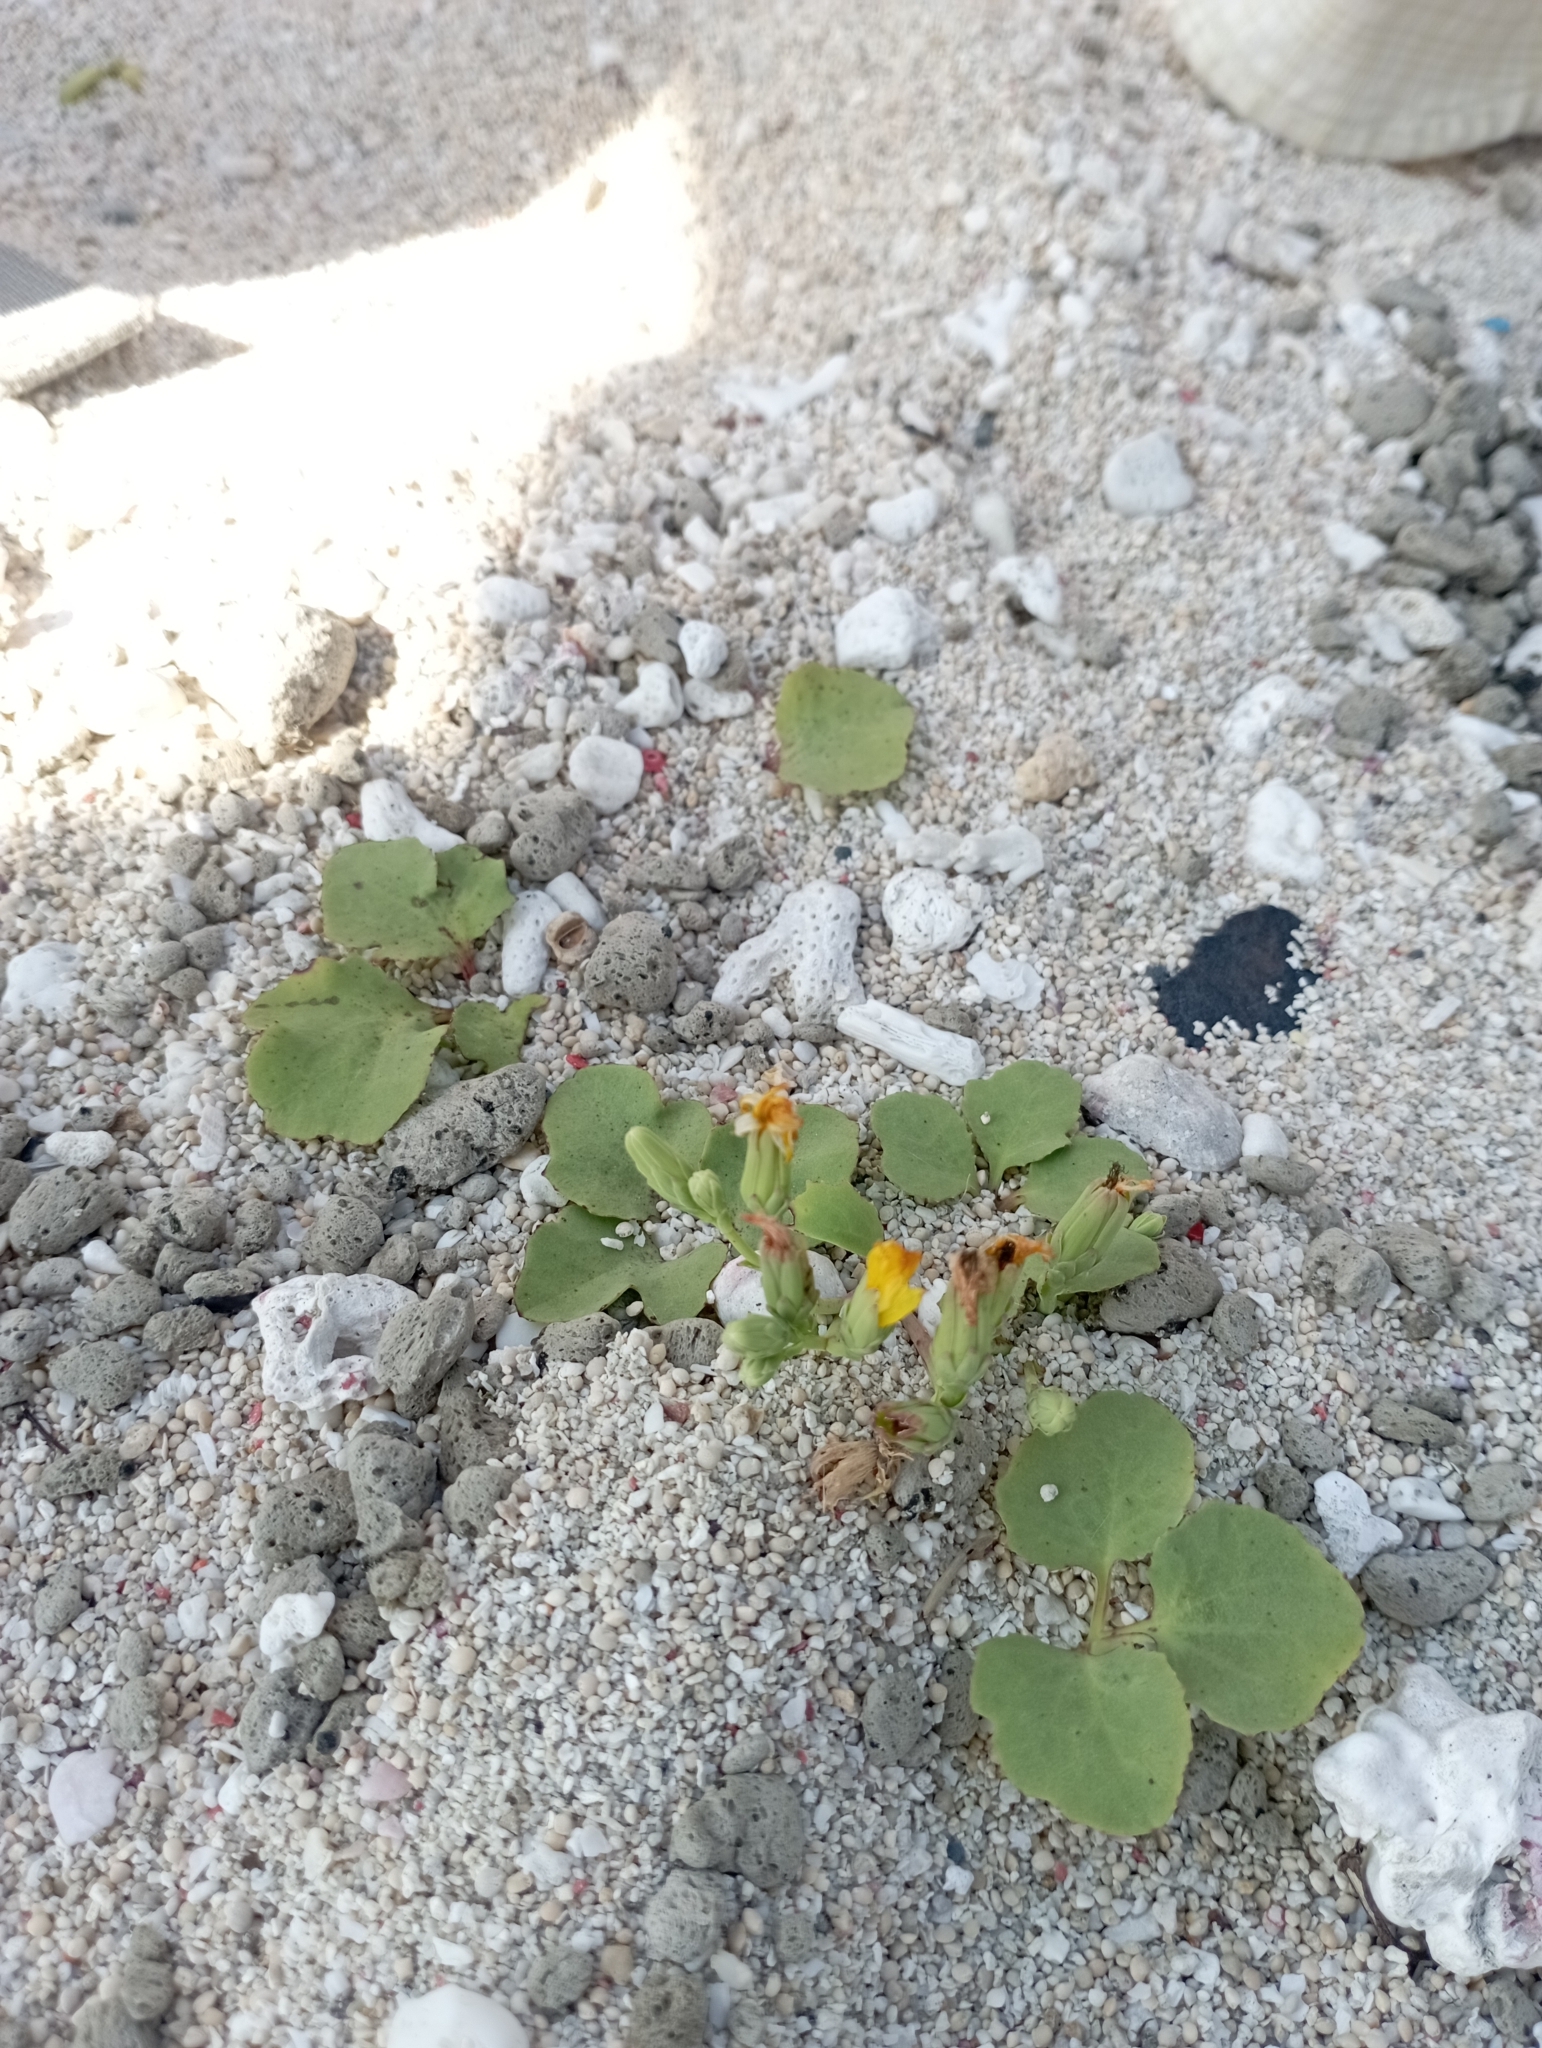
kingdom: Plantae
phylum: Tracheophyta
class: Magnoliopsida
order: Asterales
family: Asteraceae
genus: Ixeris
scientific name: Ixeris repens
